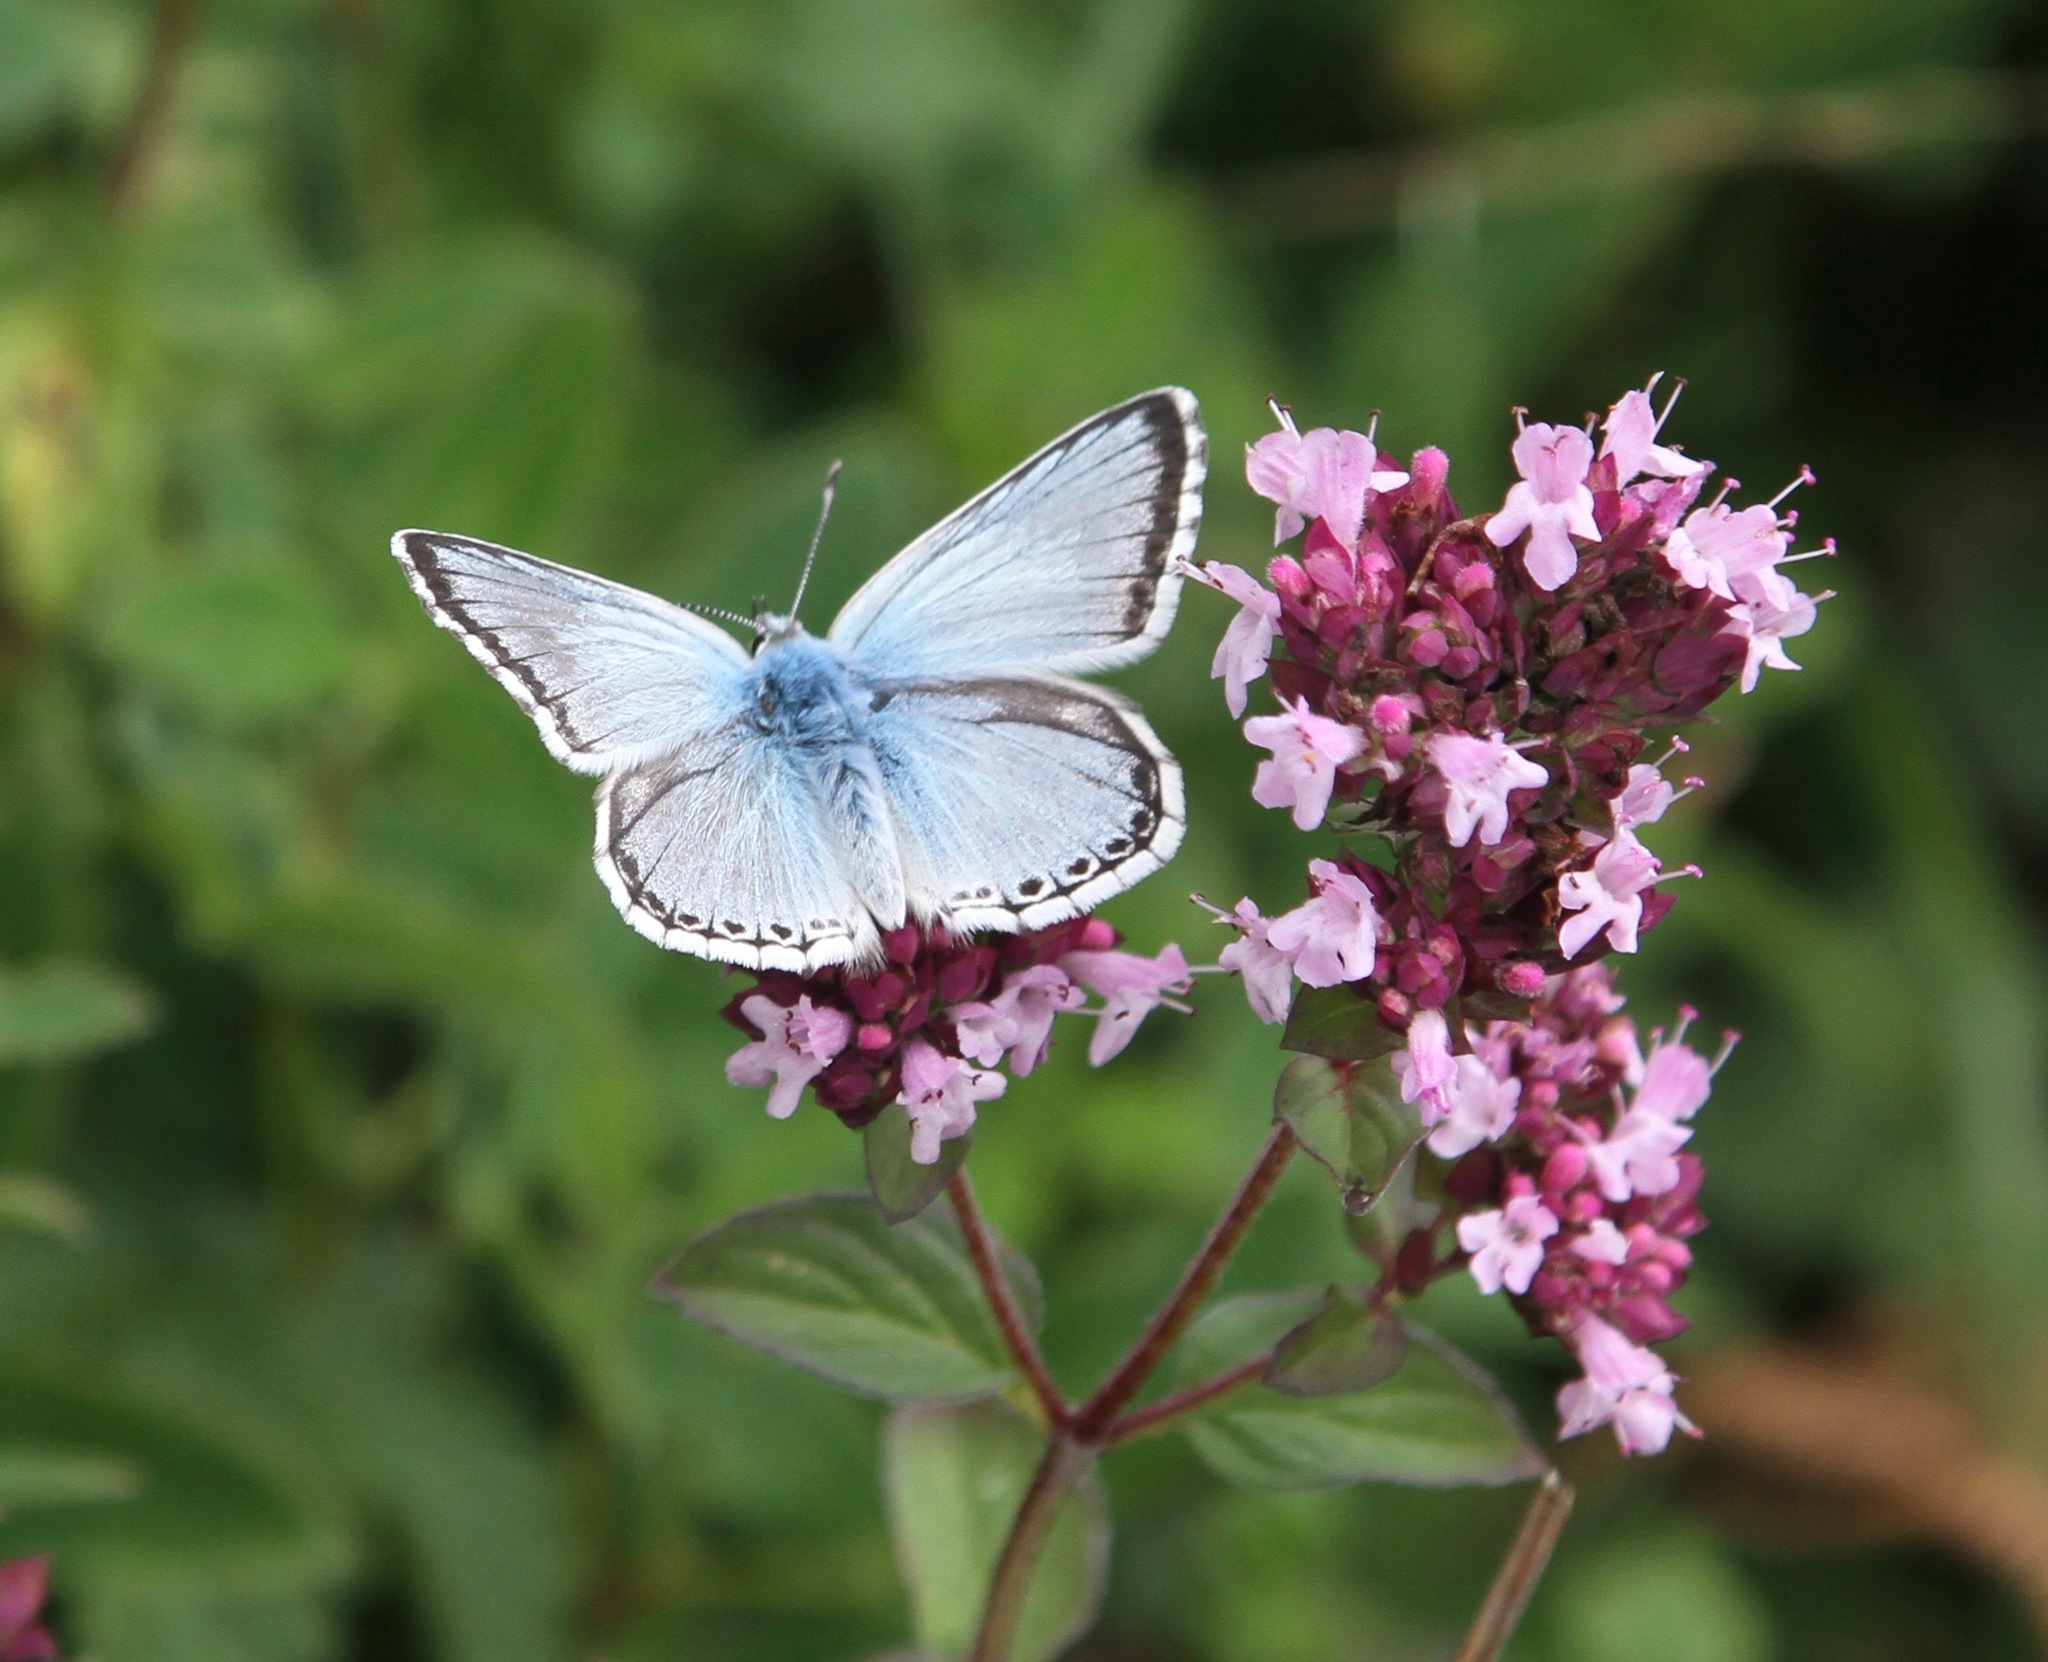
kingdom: Animalia
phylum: Arthropoda
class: Insecta
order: Lepidoptera
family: Lycaenidae
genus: Lysandra
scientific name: Lysandra coridon
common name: Chalkhill blue
